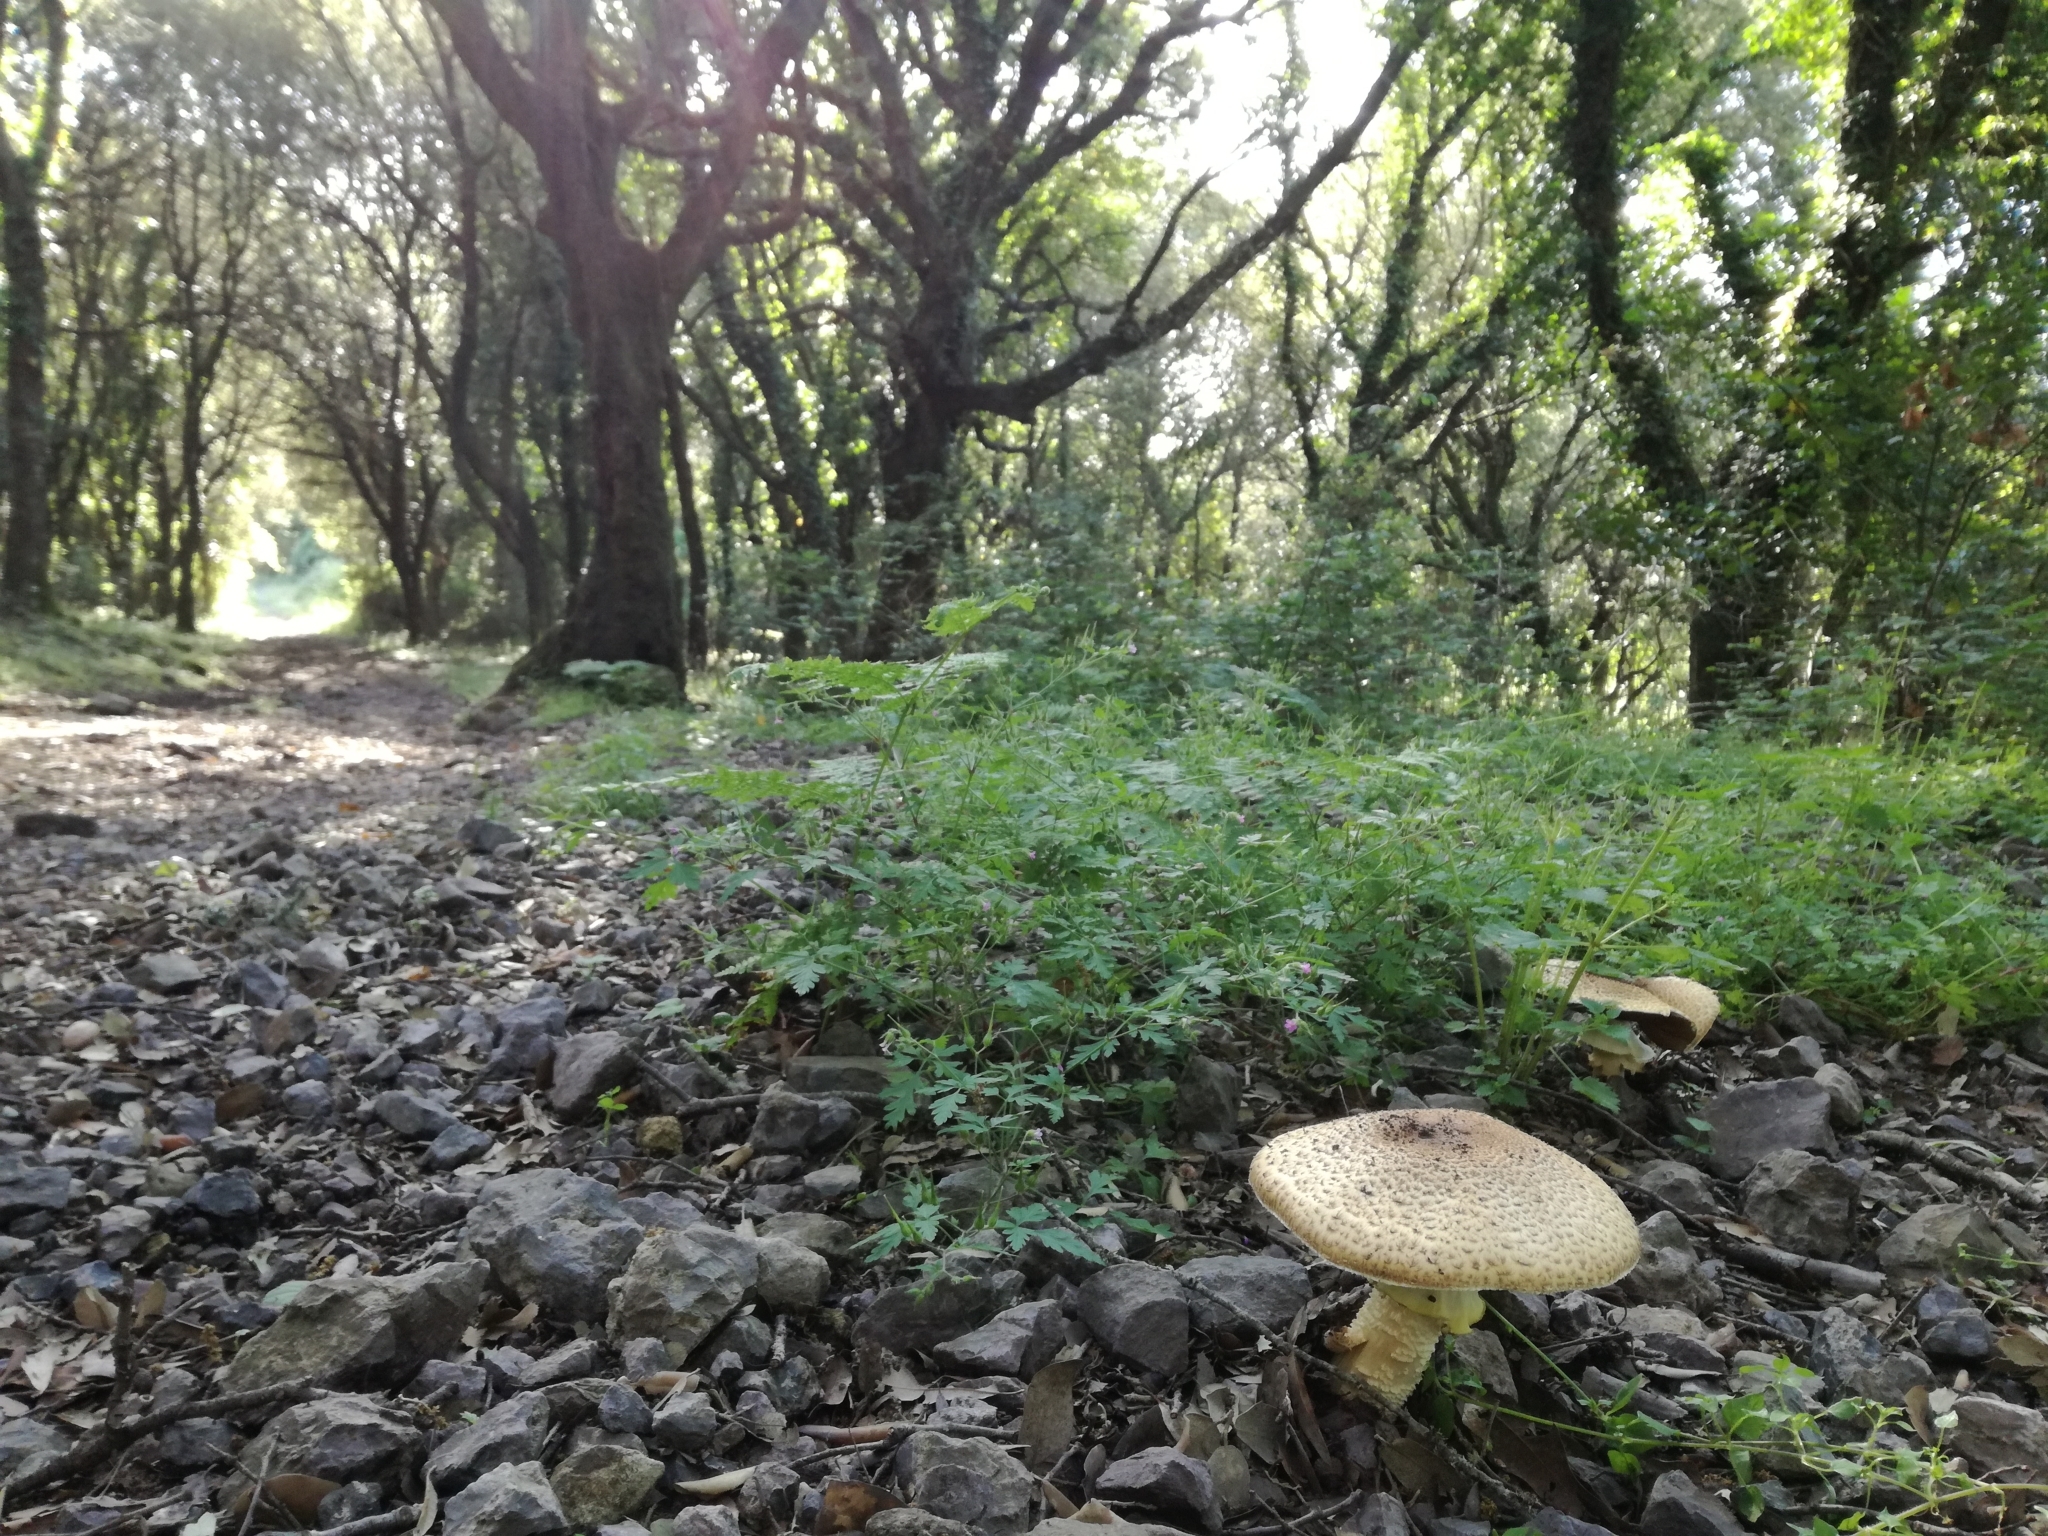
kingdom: Fungi
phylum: Basidiomycota
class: Agaricomycetes
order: Agaricales
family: Agaricaceae
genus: Agaricus
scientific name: Agaricus augustus
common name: Prince
